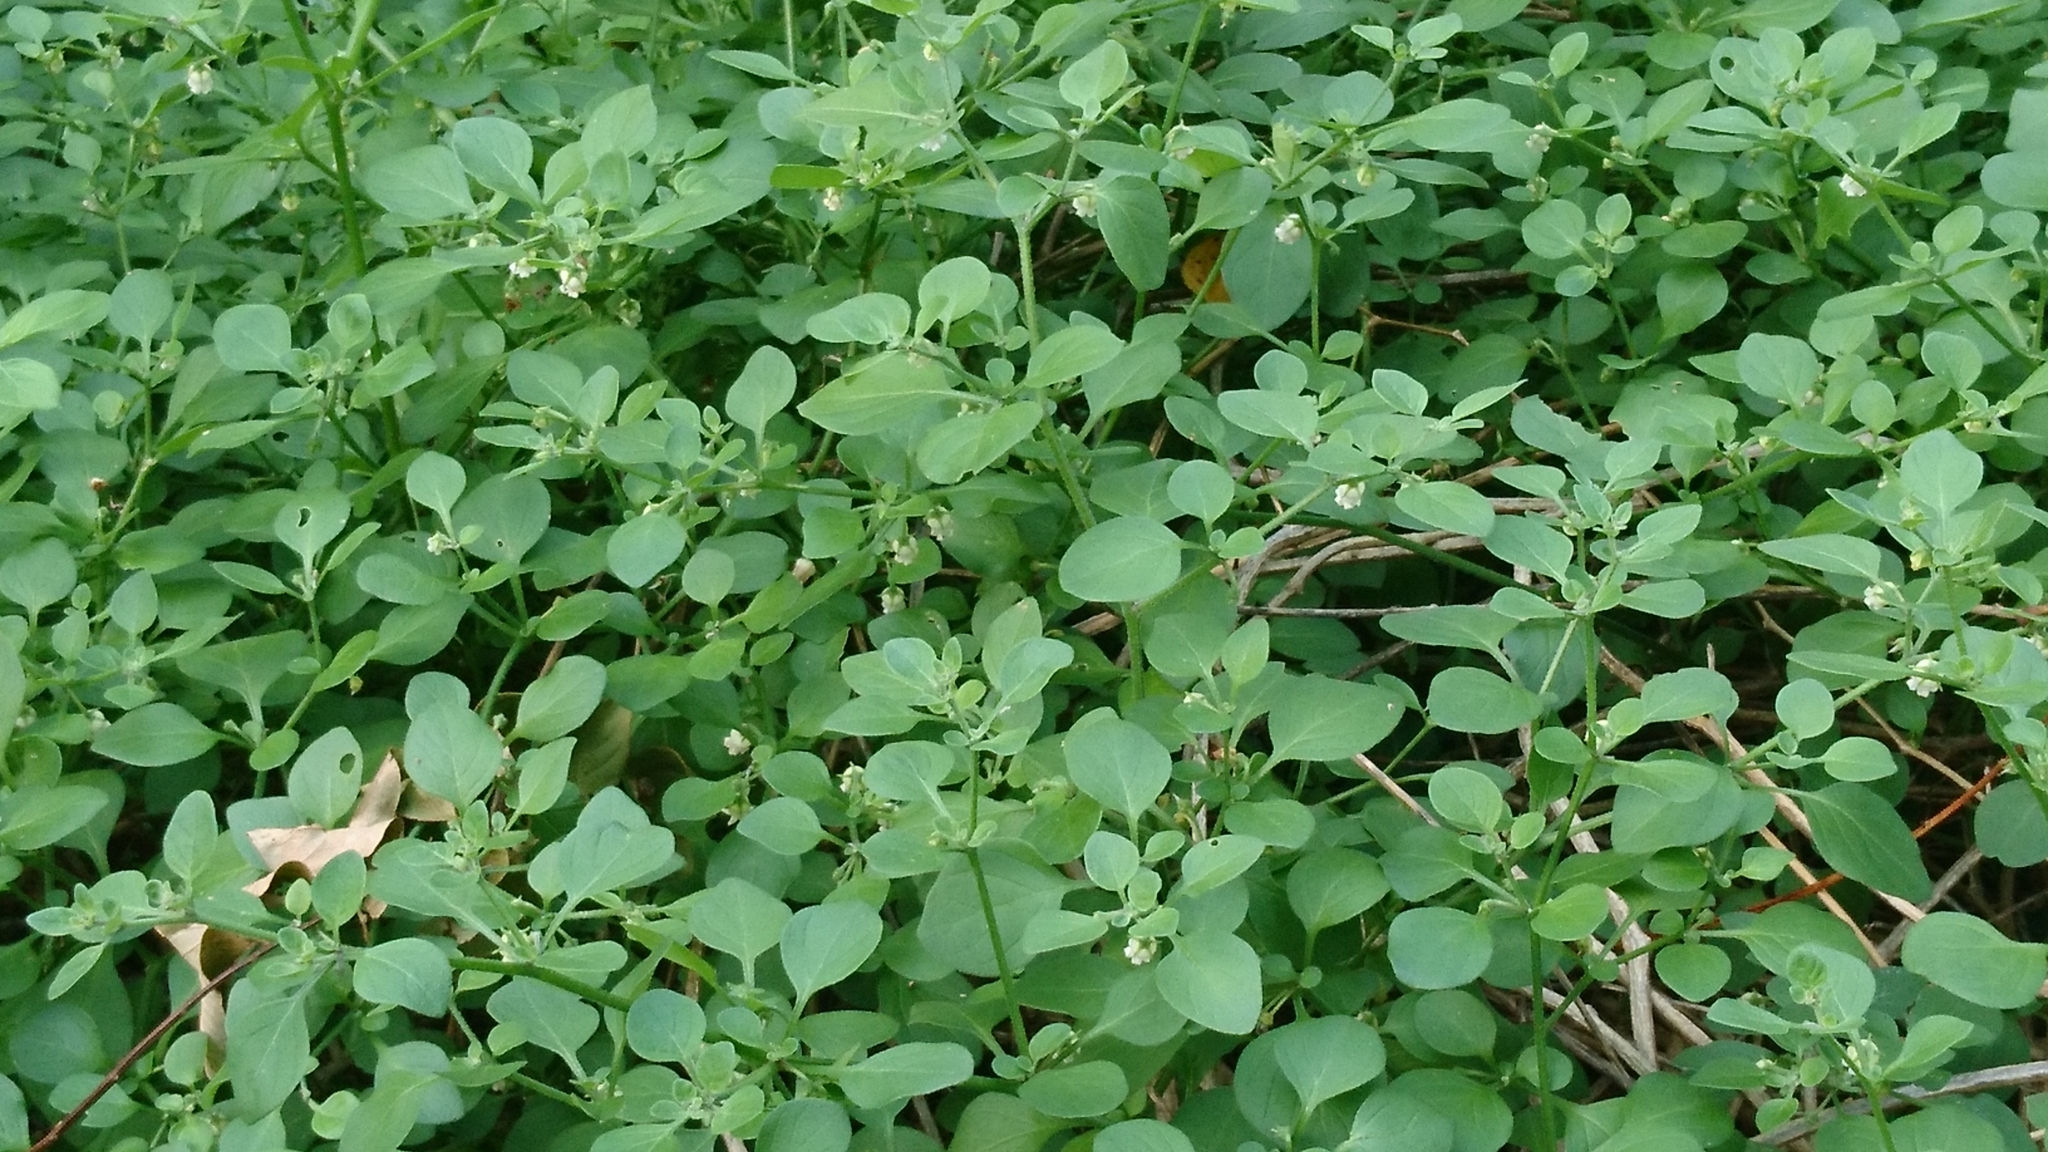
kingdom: Plantae
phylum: Tracheophyta
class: Magnoliopsida
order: Solanales
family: Solanaceae
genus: Salpichroa
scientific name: Salpichroa origanifolia
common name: Lily-of-the-valley-vine
